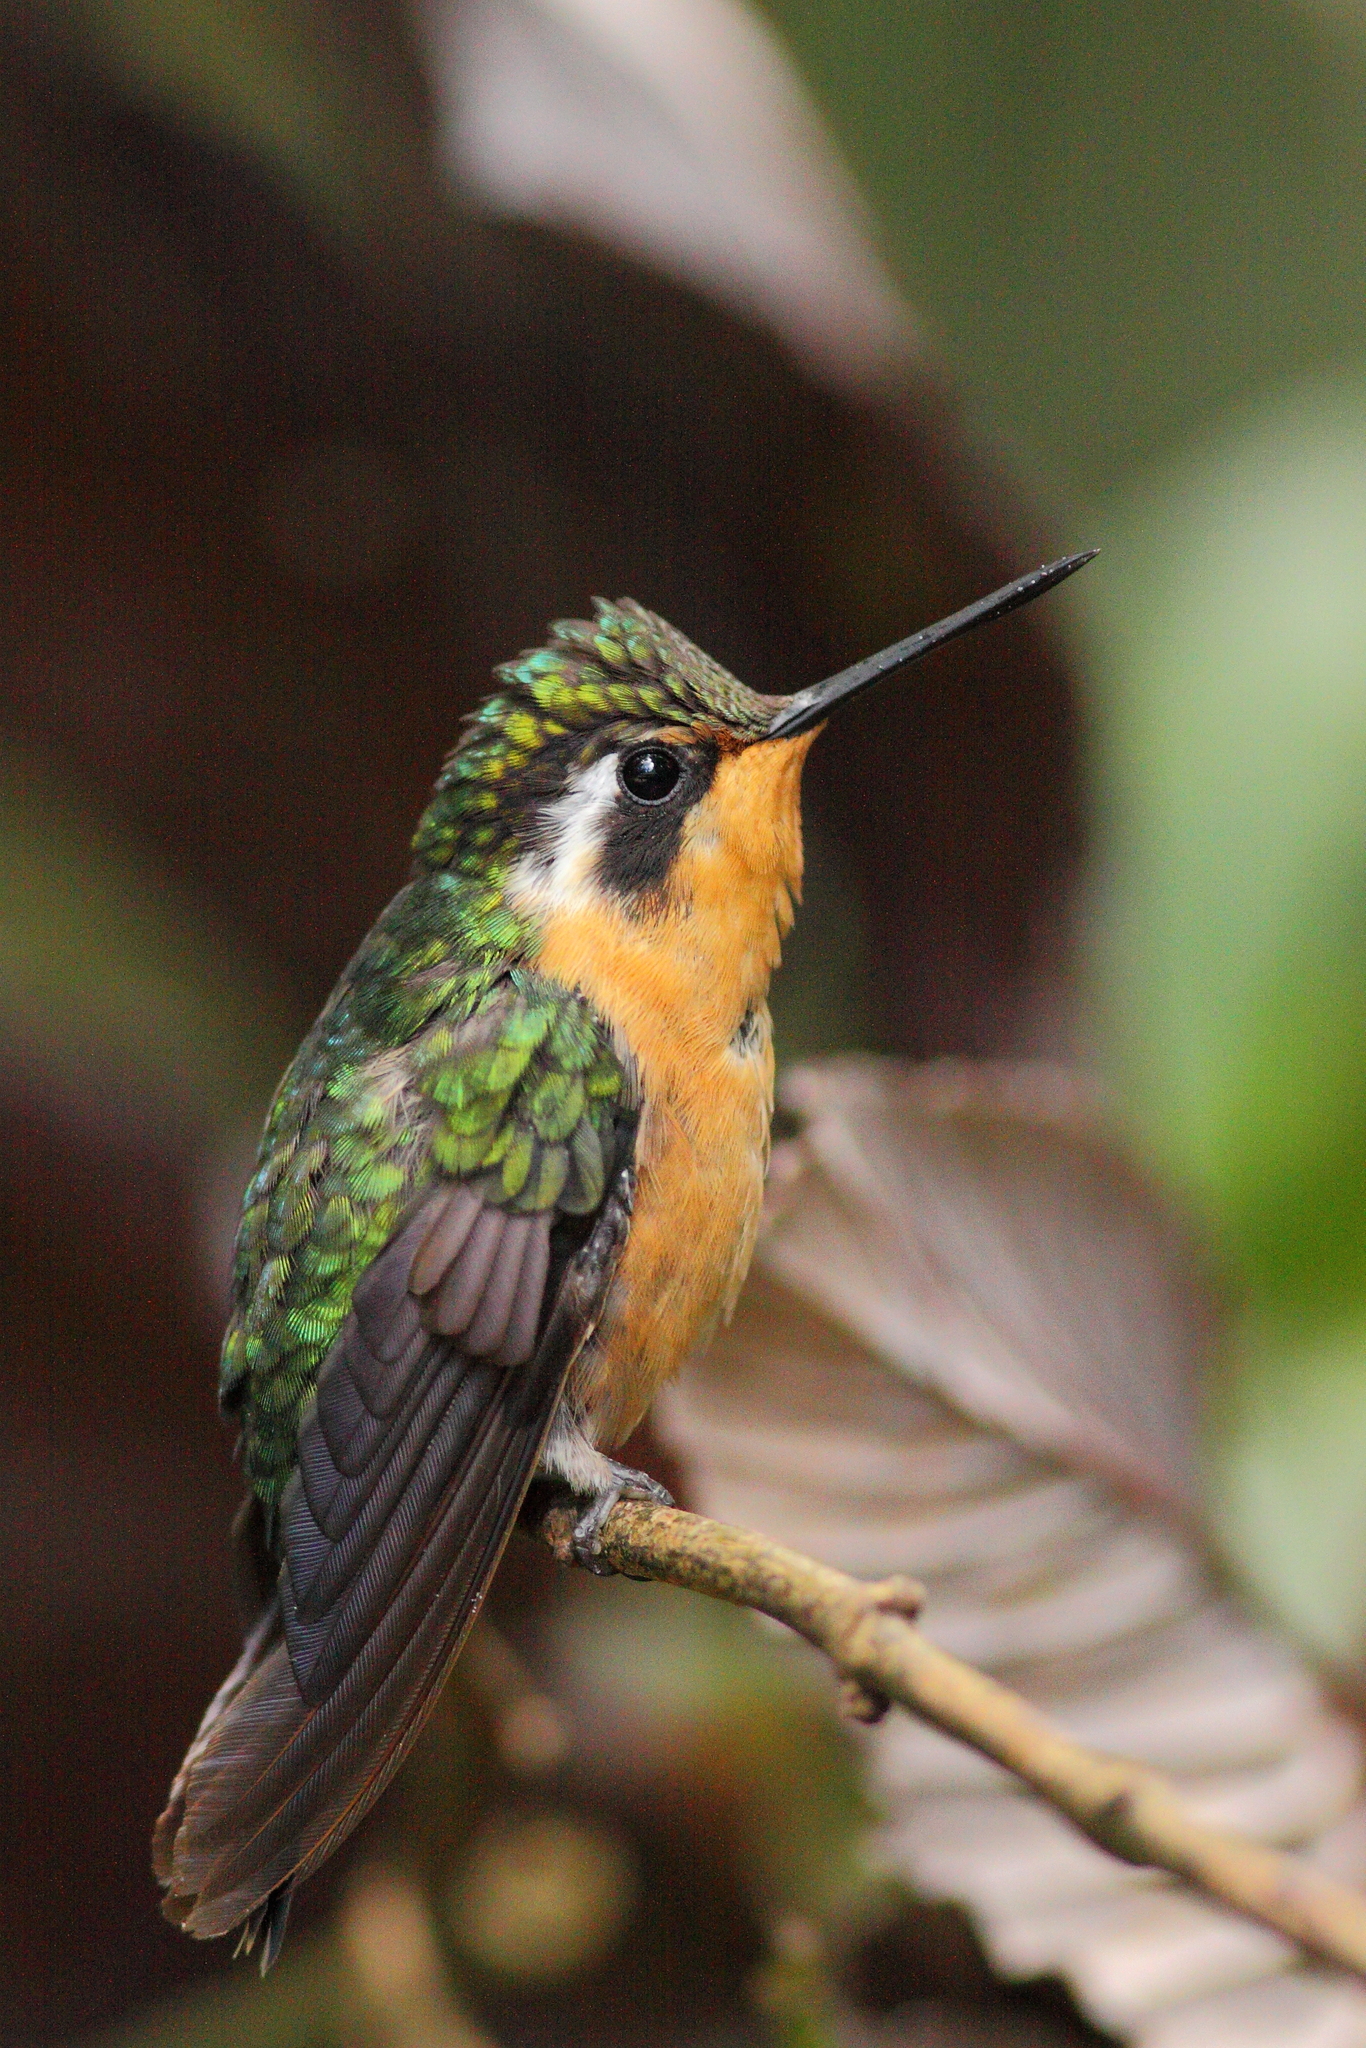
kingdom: Animalia
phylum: Chordata
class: Aves
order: Apodiformes
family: Trochilidae
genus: Lampornis
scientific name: Lampornis calolaemus
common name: Purple-throated mountain-gem
